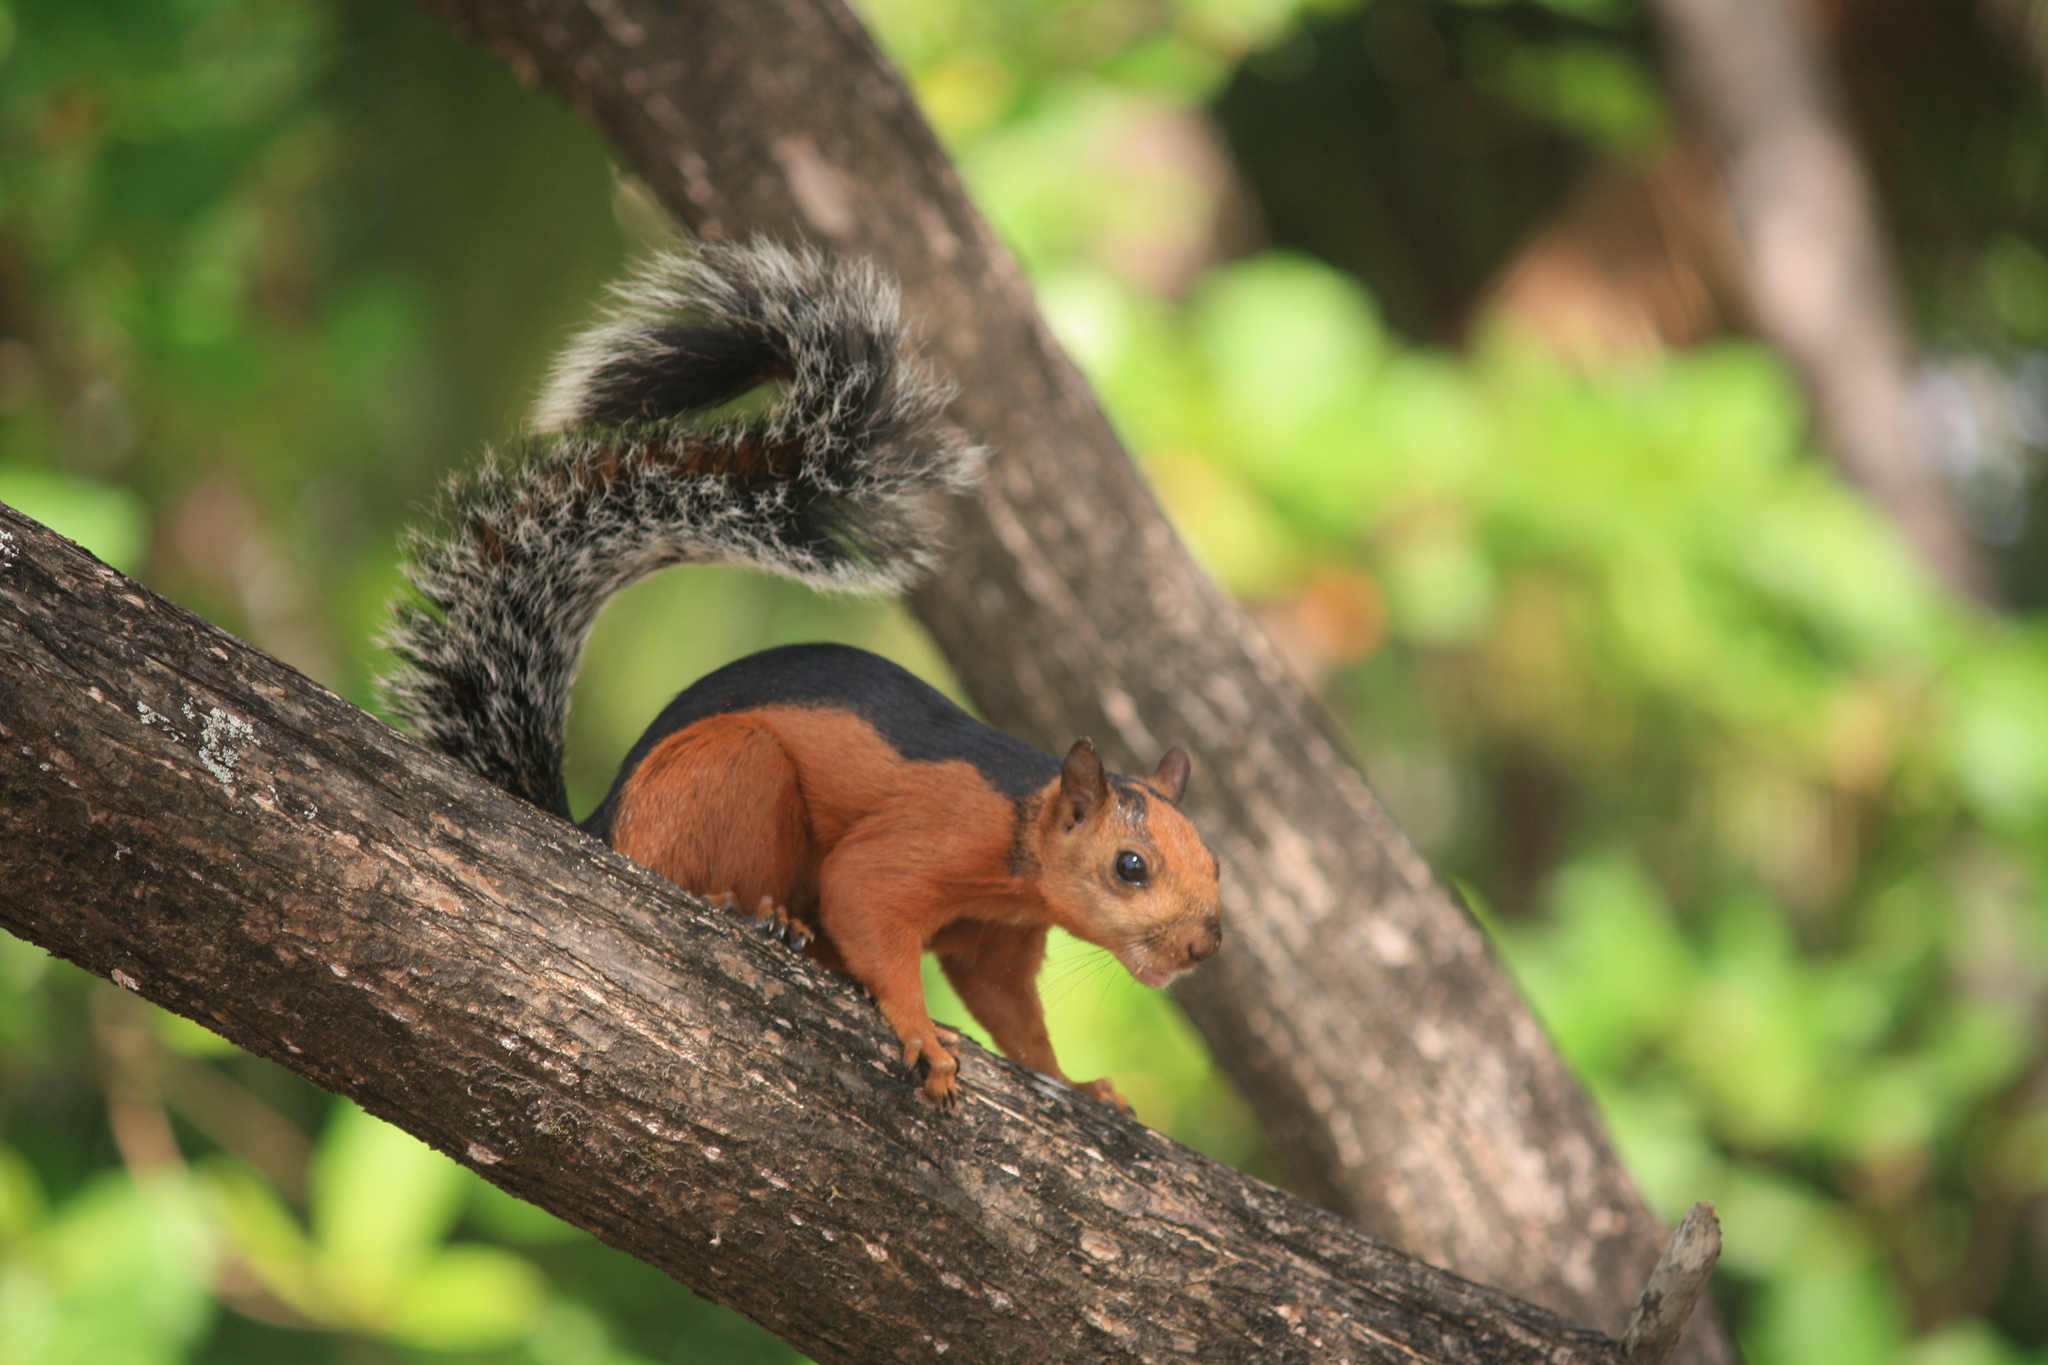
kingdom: Animalia
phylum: Chordata
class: Mammalia
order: Rodentia
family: Sciuridae
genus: Sciurus
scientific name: Sciurus variegatoides
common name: Variegated squirrel
